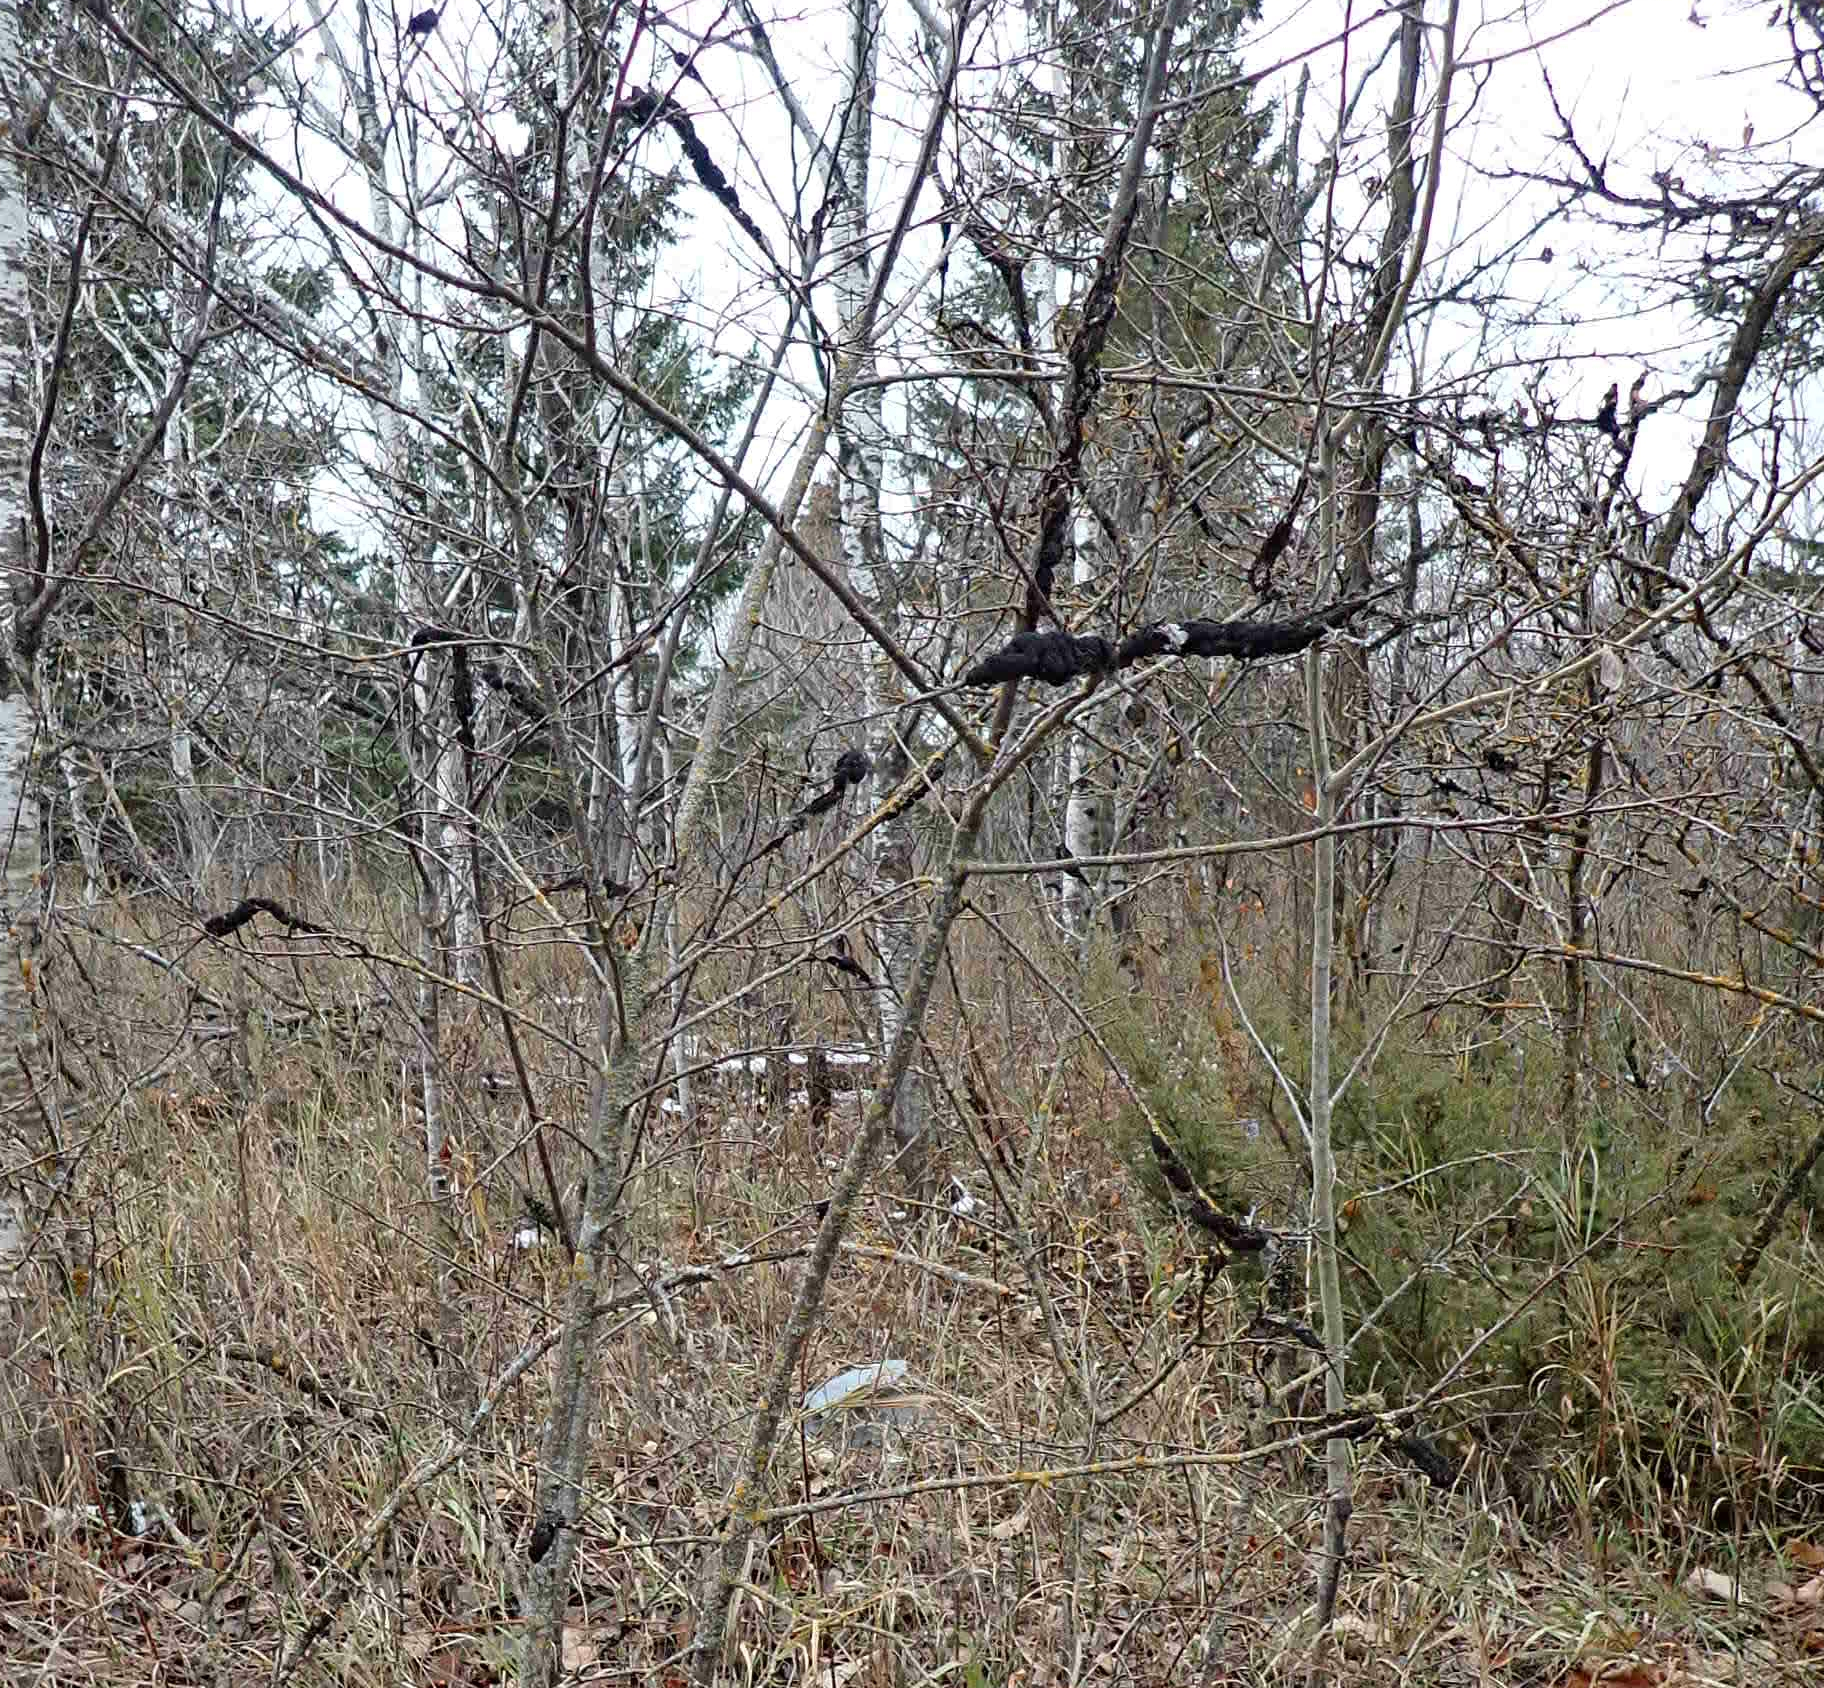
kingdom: Fungi
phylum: Ascomycota
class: Dothideomycetes
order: Venturiales
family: Venturiaceae
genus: Apiosporina
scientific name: Apiosporina morbosa
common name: Black knot
